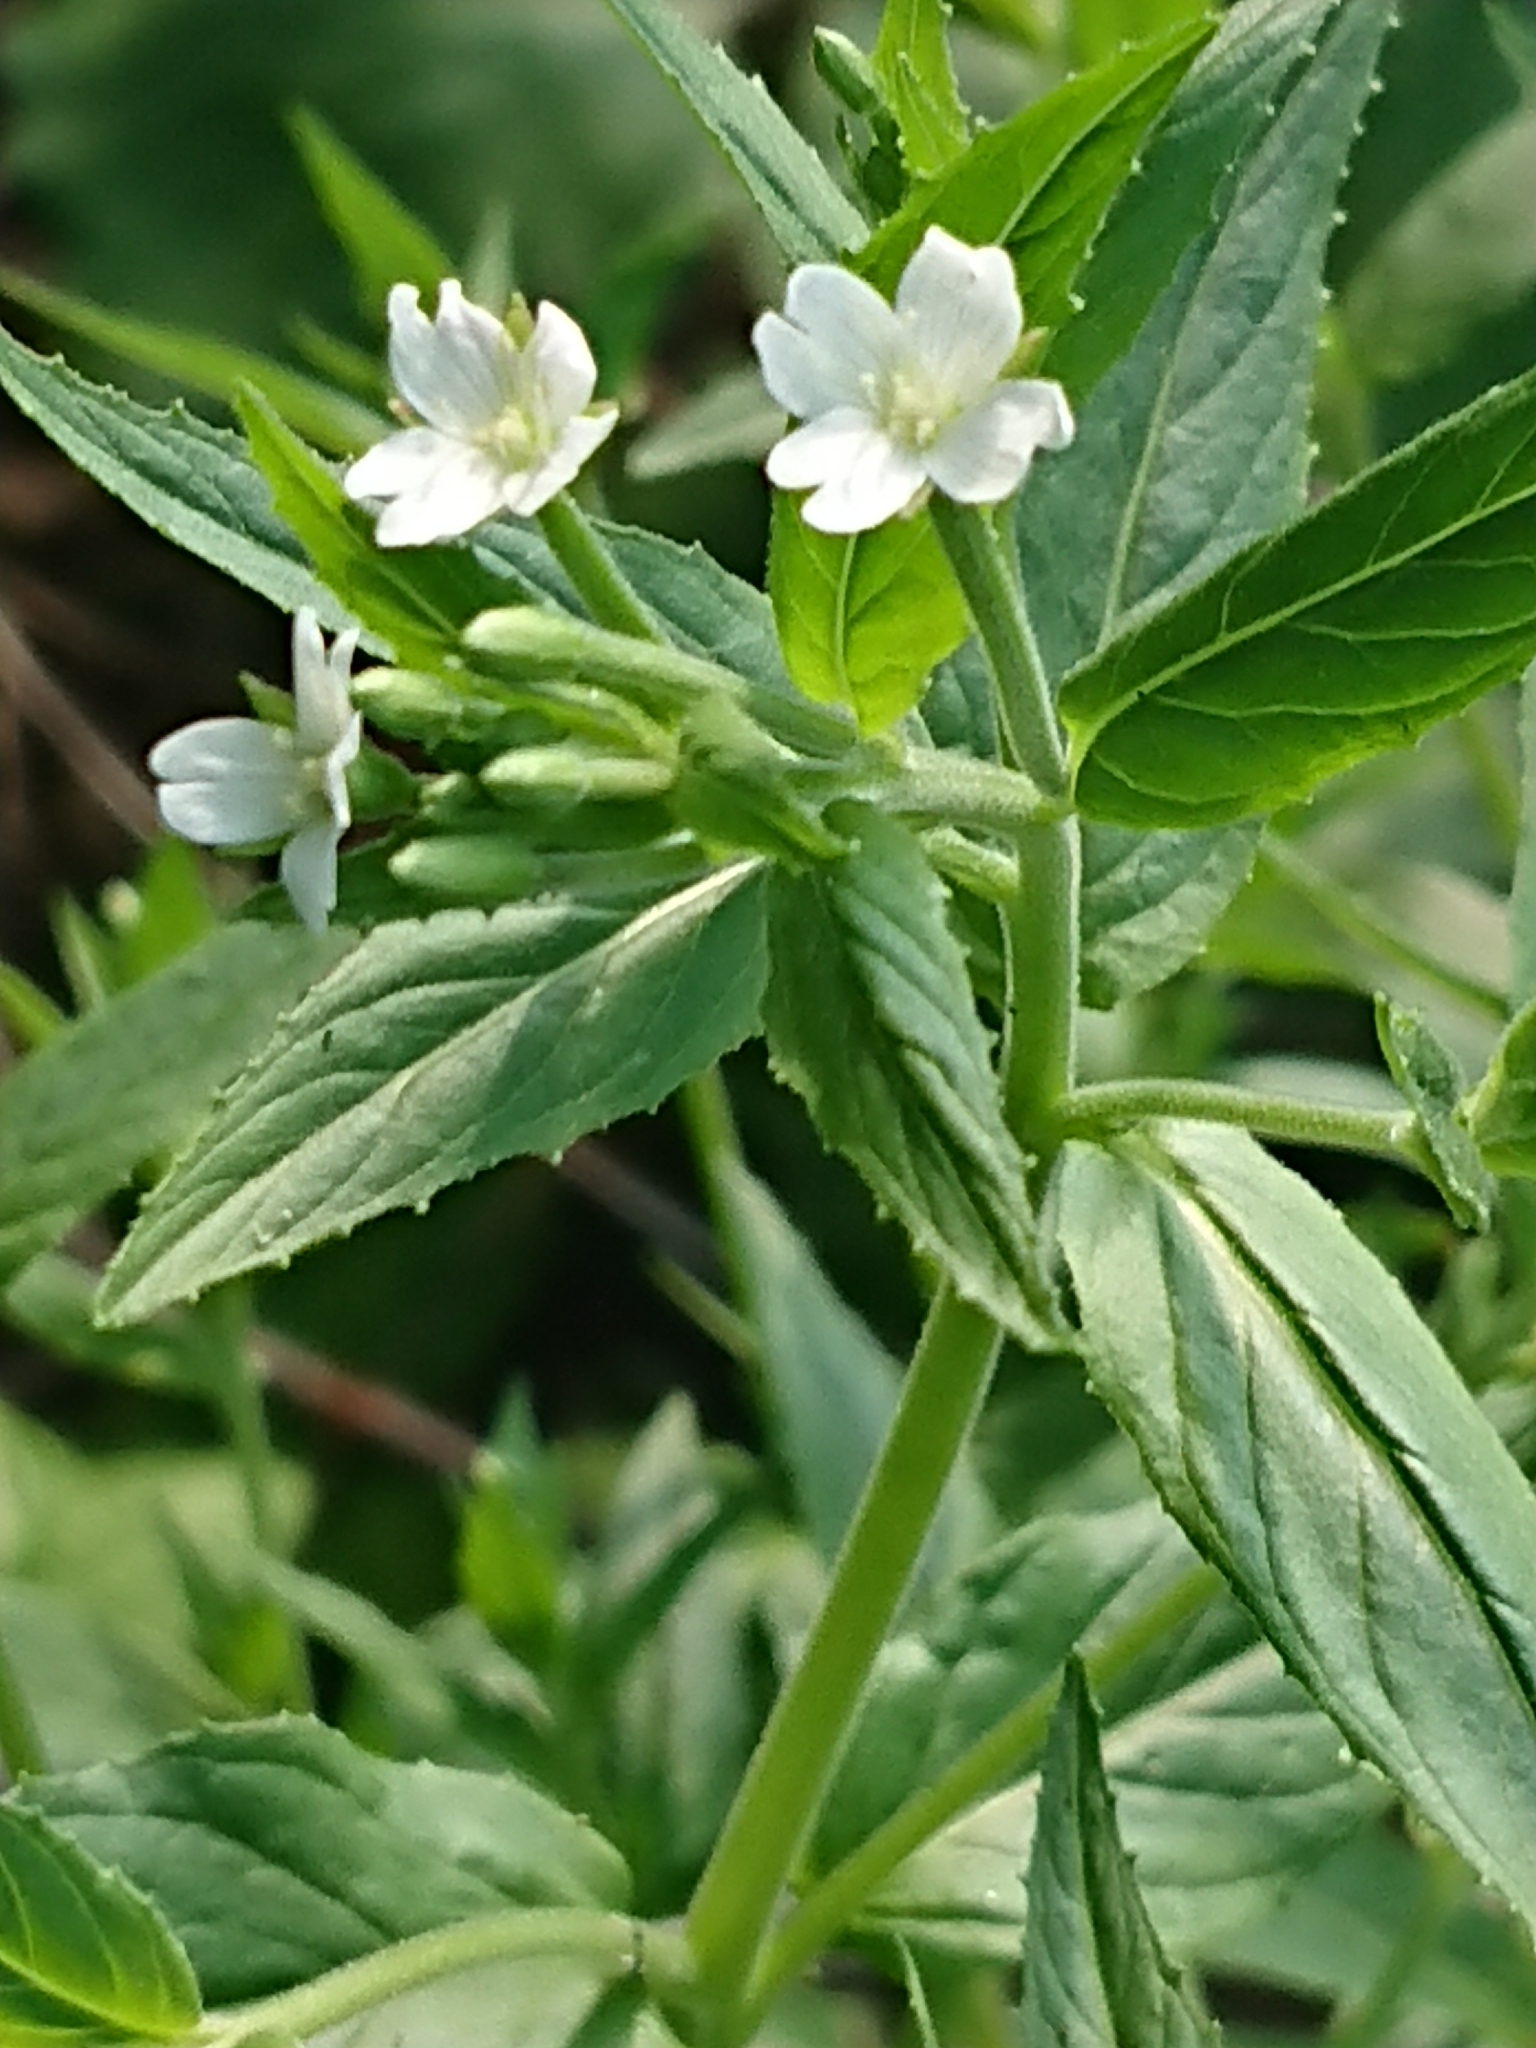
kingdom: Plantae
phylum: Tracheophyta
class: Magnoliopsida
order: Myrtales
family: Onagraceae
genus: Epilobium
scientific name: Epilobium pseudorubescens
